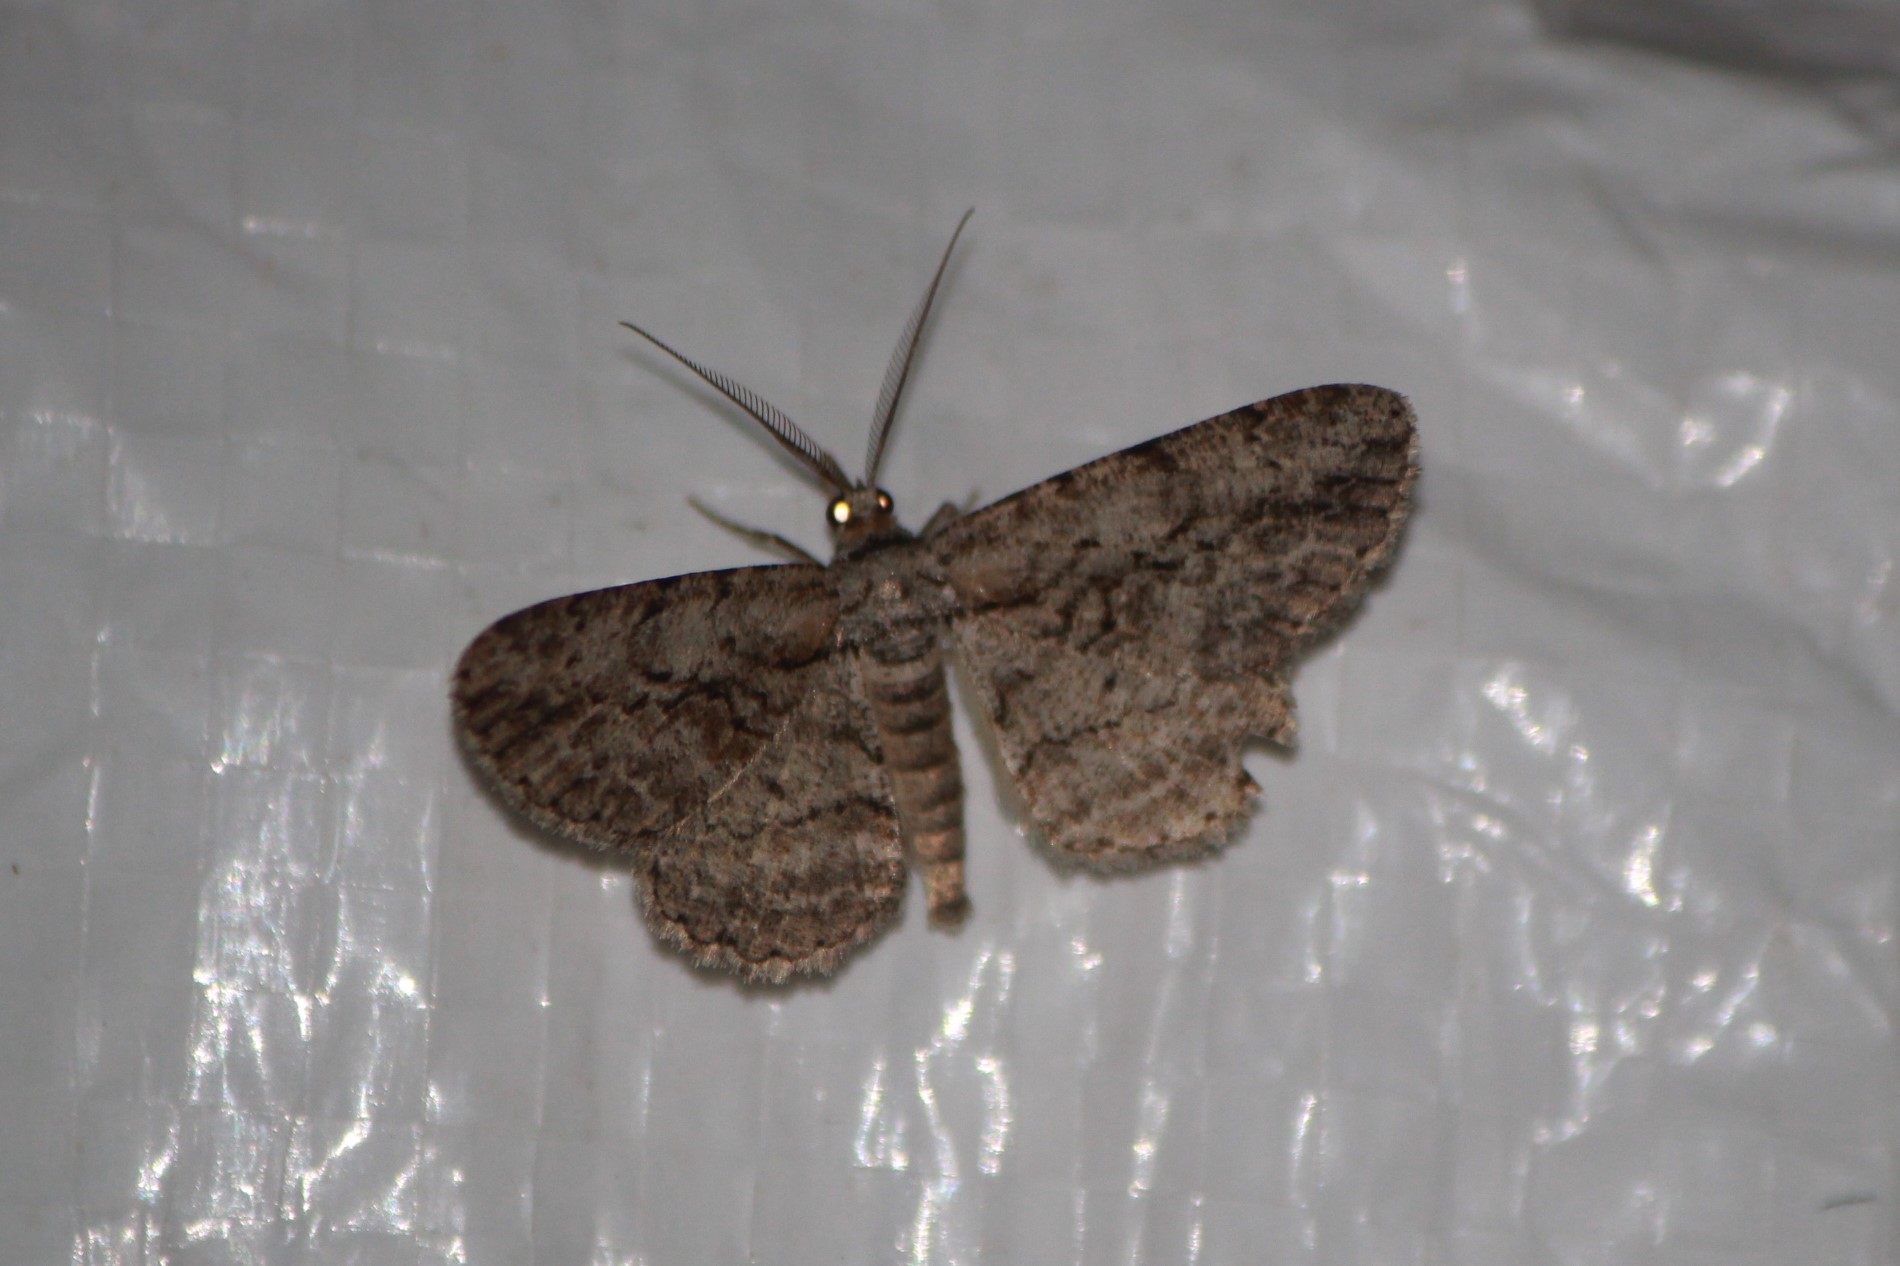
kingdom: Animalia
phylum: Arthropoda
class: Insecta
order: Lepidoptera
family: Geometridae
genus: Anavitrinella
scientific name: Anavitrinella pampinaria
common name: Common gray
